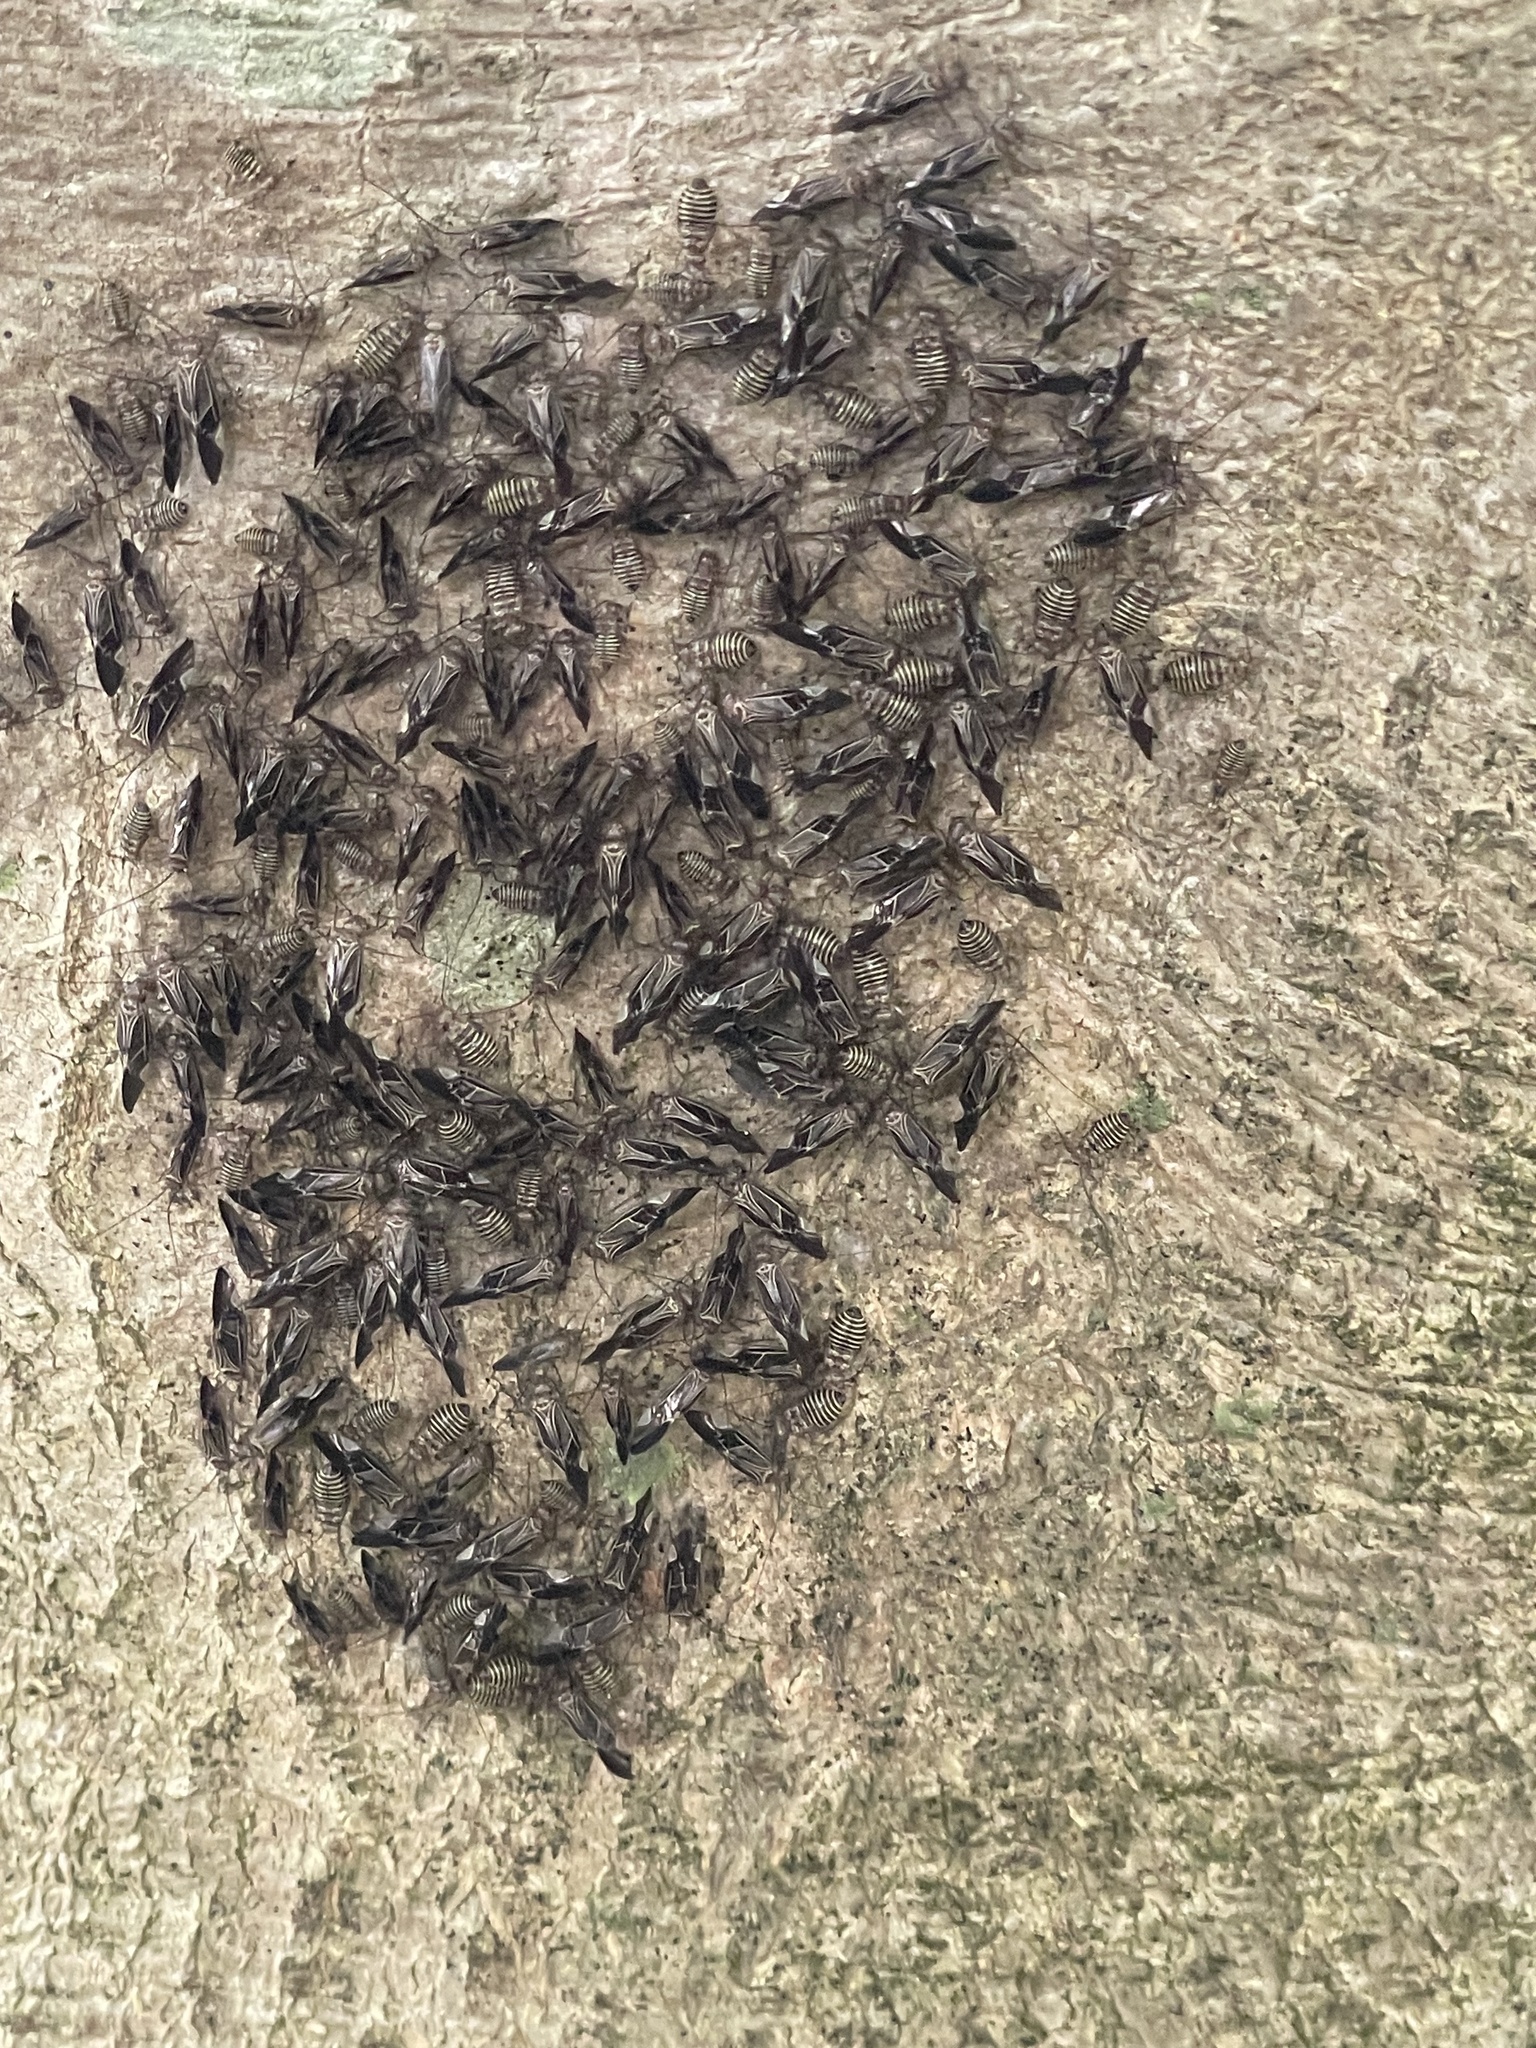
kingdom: Animalia
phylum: Arthropoda
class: Insecta
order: Psocodea
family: Psocidae
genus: Cerastipsocus
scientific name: Cerastipsocus venosus
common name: Tree cattle
